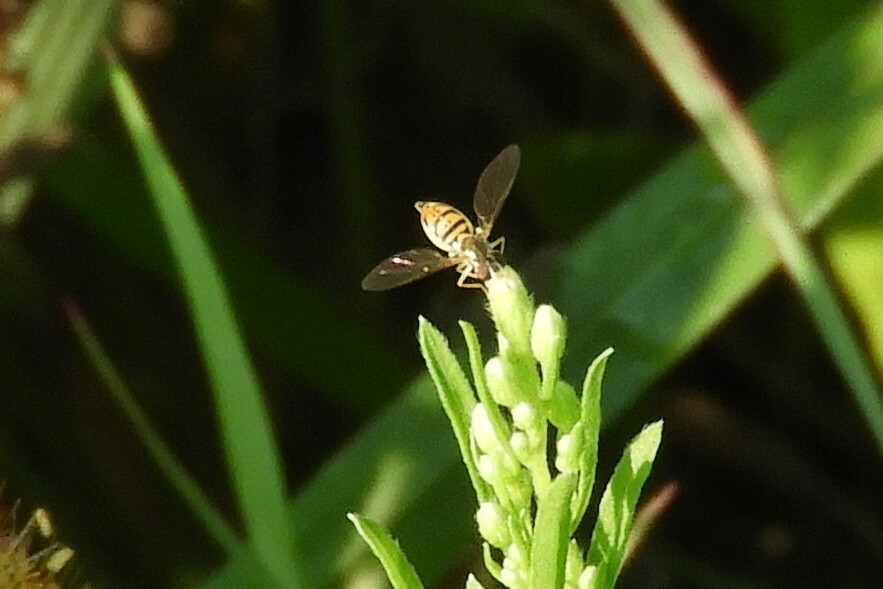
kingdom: Animalia
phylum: Arthropoda
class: Insecta
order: Diptera
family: Syrphidae
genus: Toxomerus
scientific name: Toxomerus marginatus
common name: Syrphid fly
